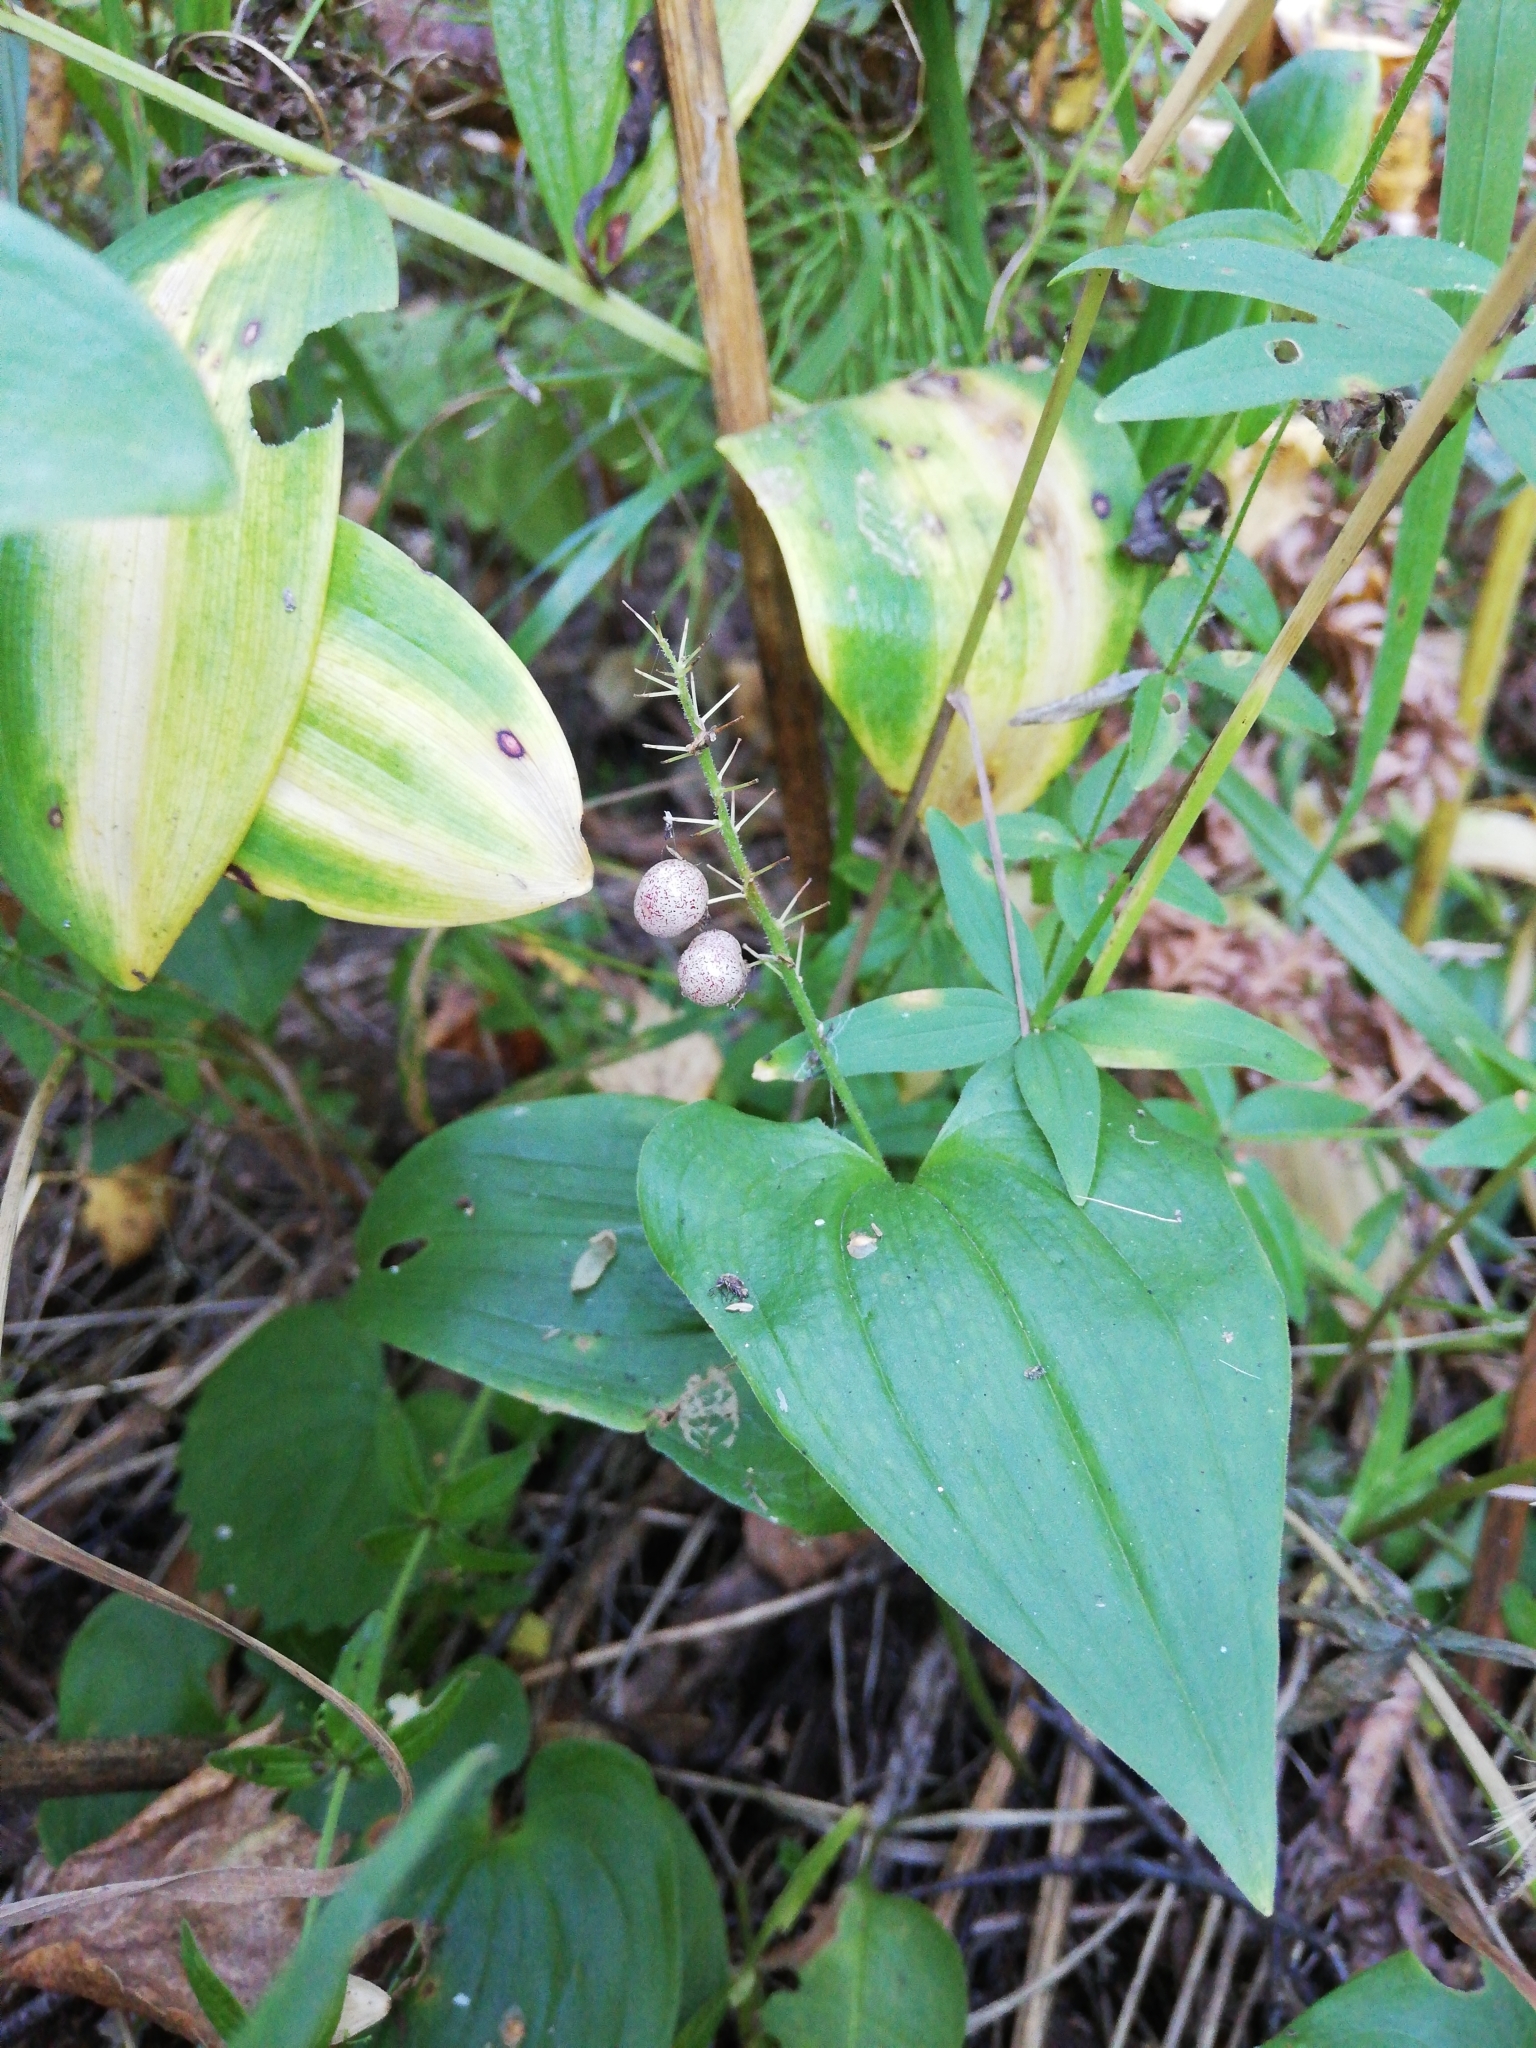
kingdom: Plantae
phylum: Tracheophyta
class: Liliopsida
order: Asparagales
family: Asparagaceae
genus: Maianthemum
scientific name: Maianthemum bifolium
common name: May lily
